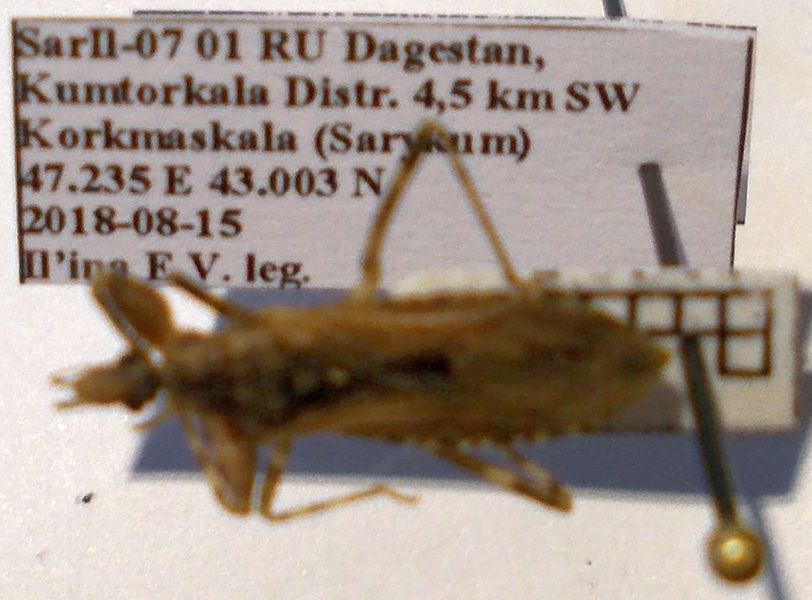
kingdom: Animalia
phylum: Arthropoda
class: Insecta
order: Hemiptera
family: Reduviidae
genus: Oncocephalus
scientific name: Oncocephalus brachymerus
